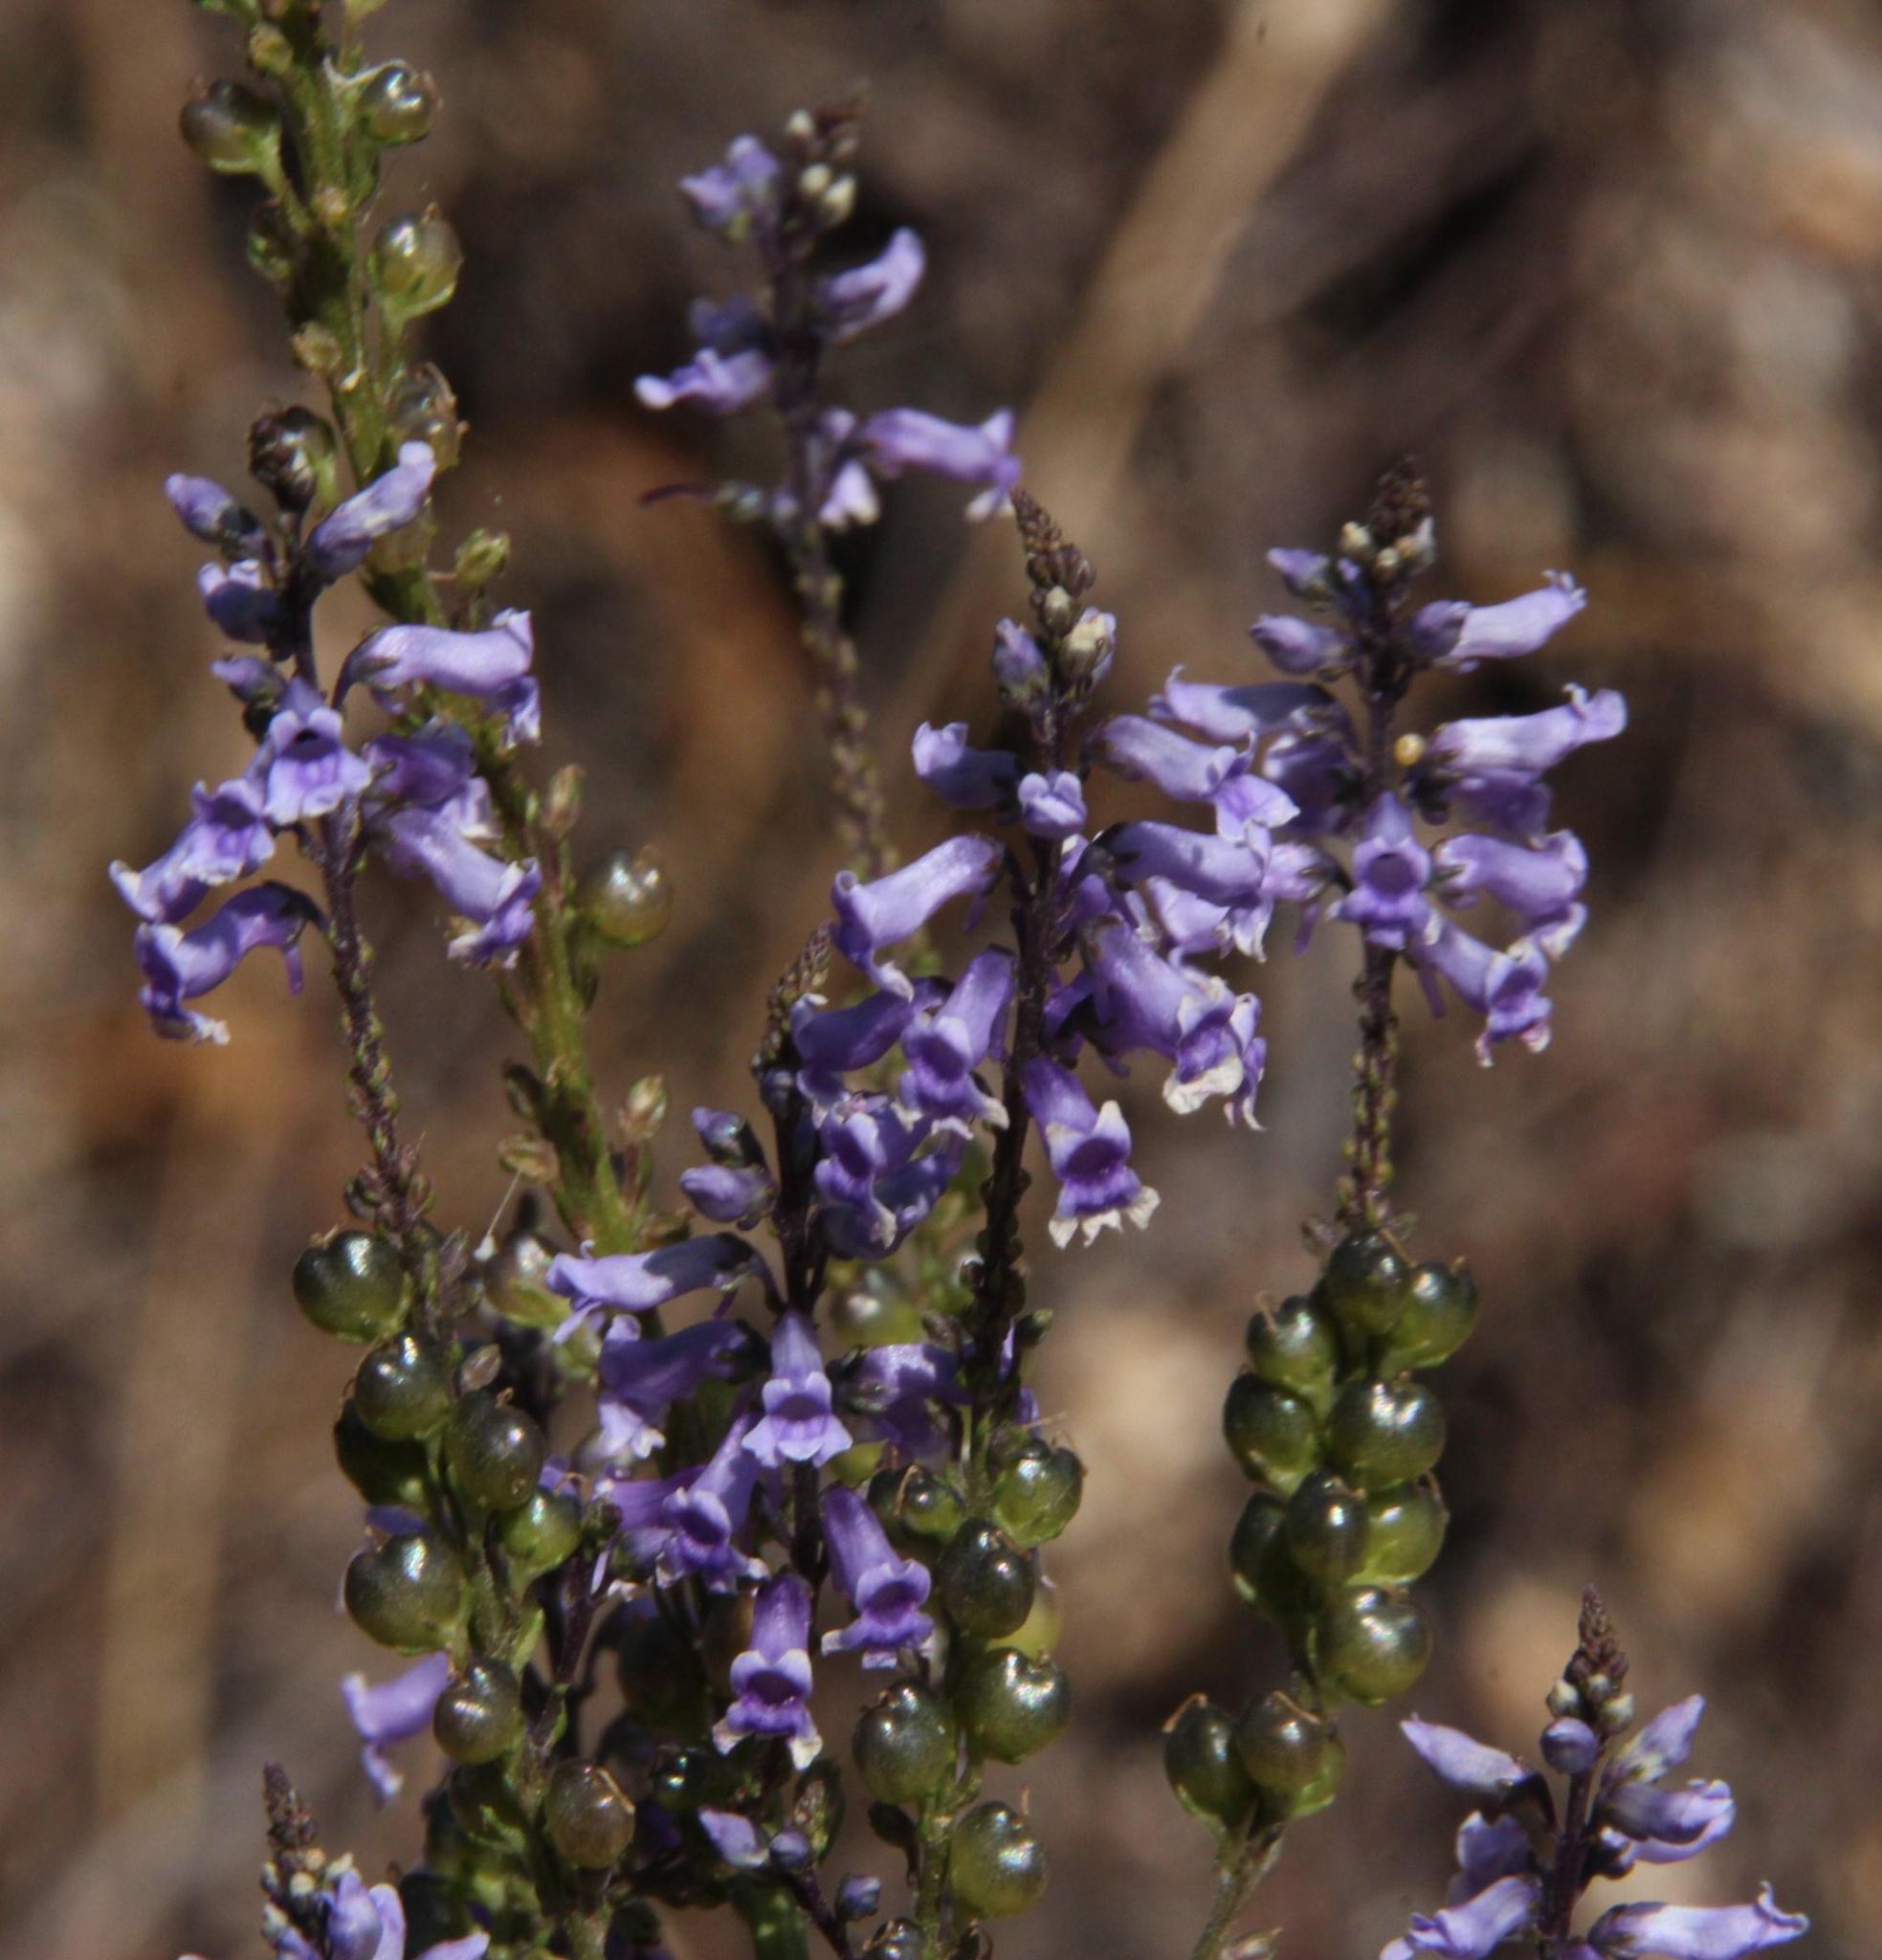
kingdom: Plantae
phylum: Tracheophyta
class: Magnoliopsida
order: Lamiales
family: Plantaginaceae
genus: Anarrhinum
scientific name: Anarrhinum bellidifolium
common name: Daisy-leaved toadflax
